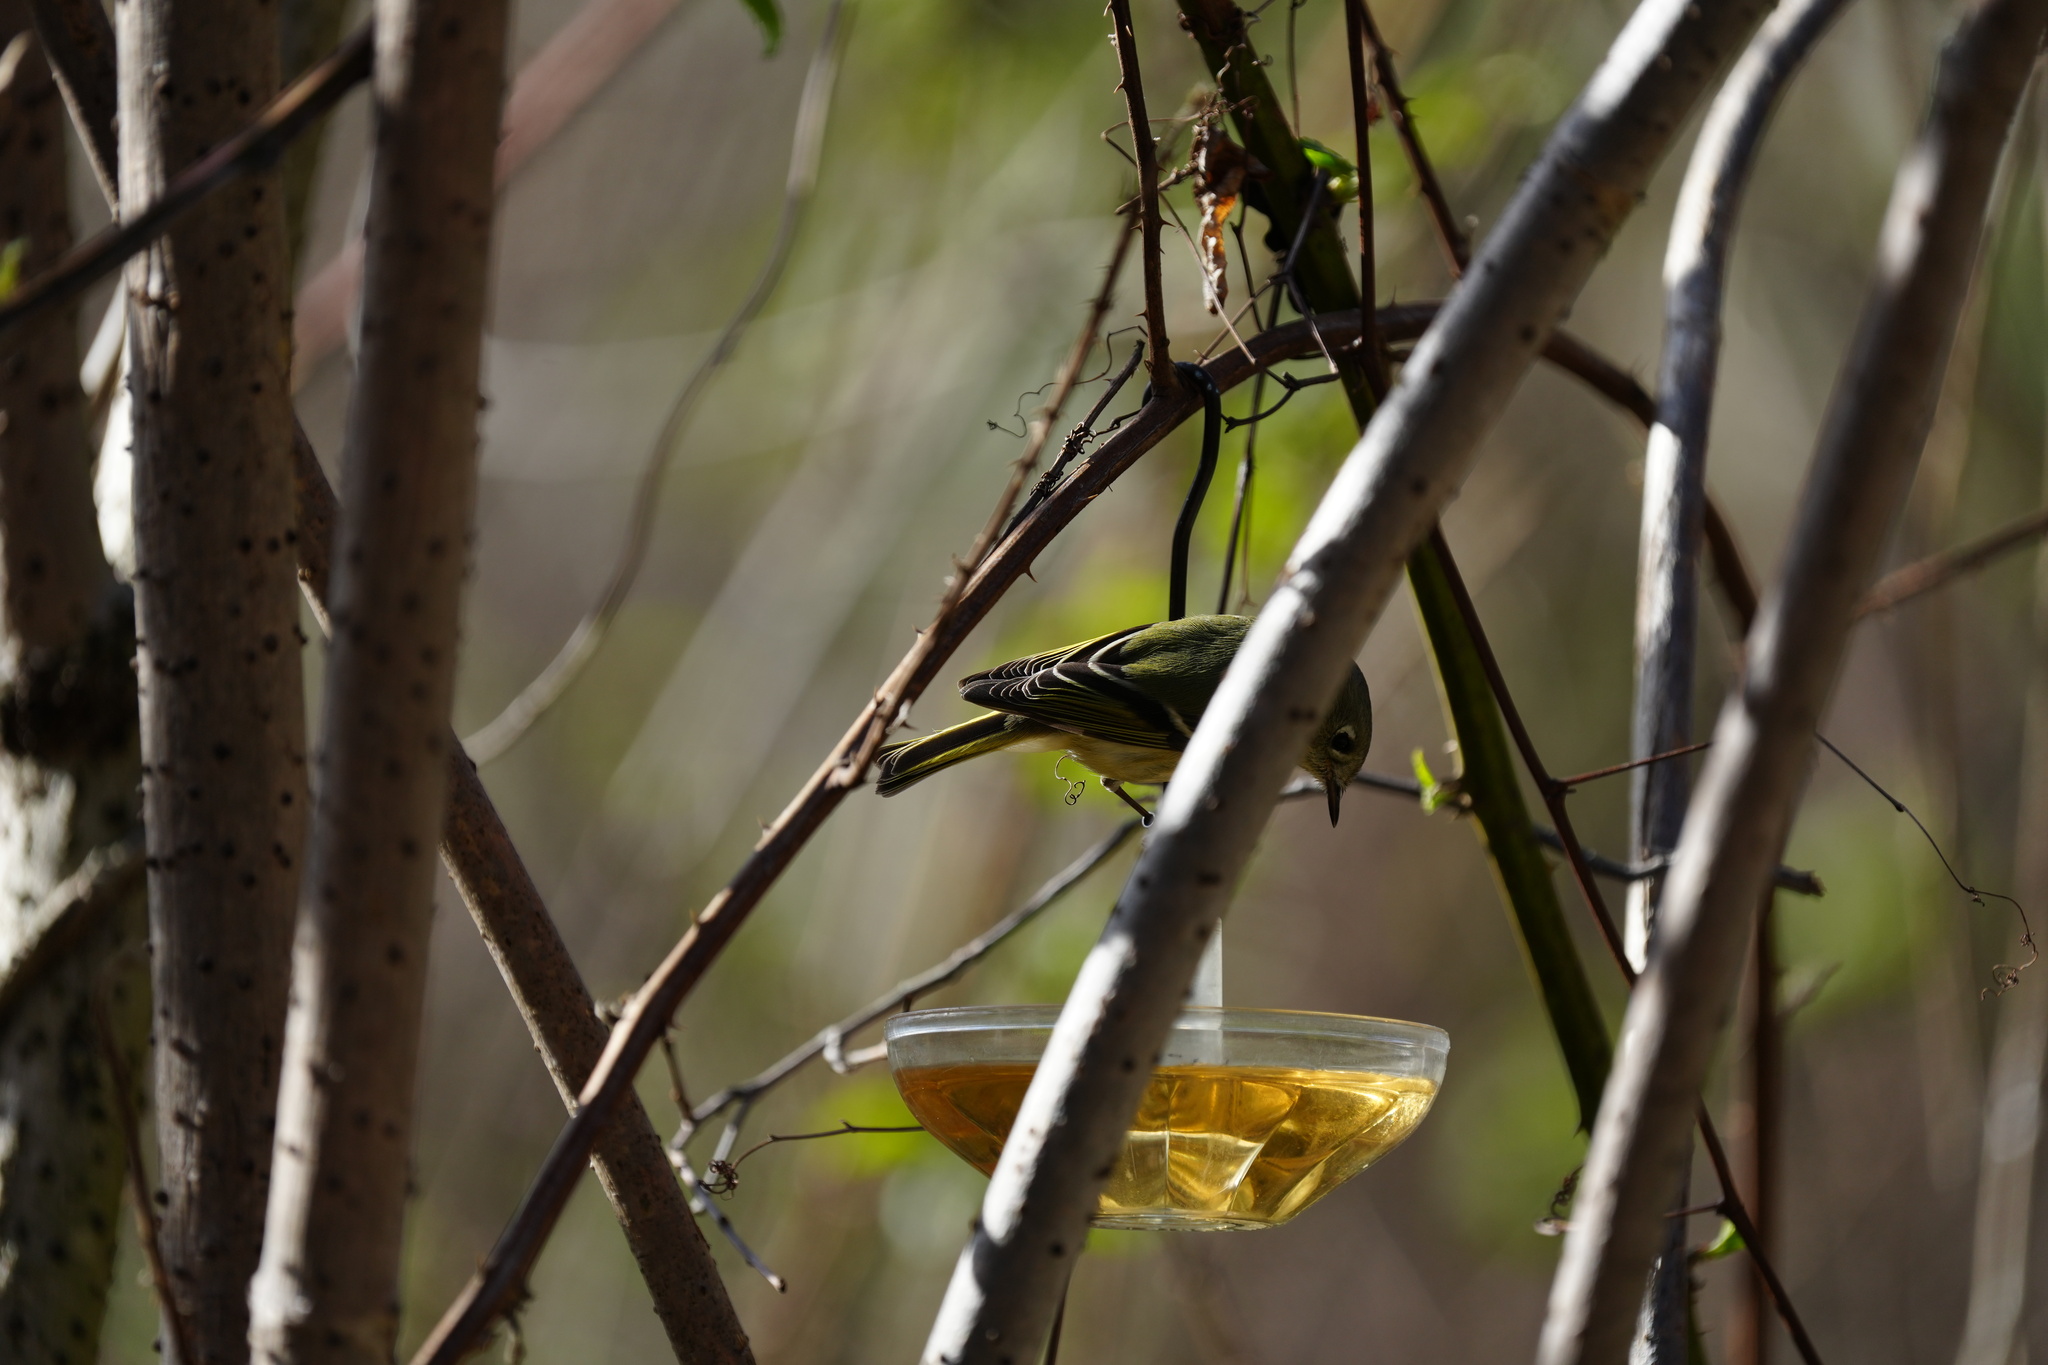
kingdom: Animalia
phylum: Chordata
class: Aves
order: Passeriformes
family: Regulidae
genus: Regulus
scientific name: Regulus calendula
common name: Ruby-crowned kinglet
